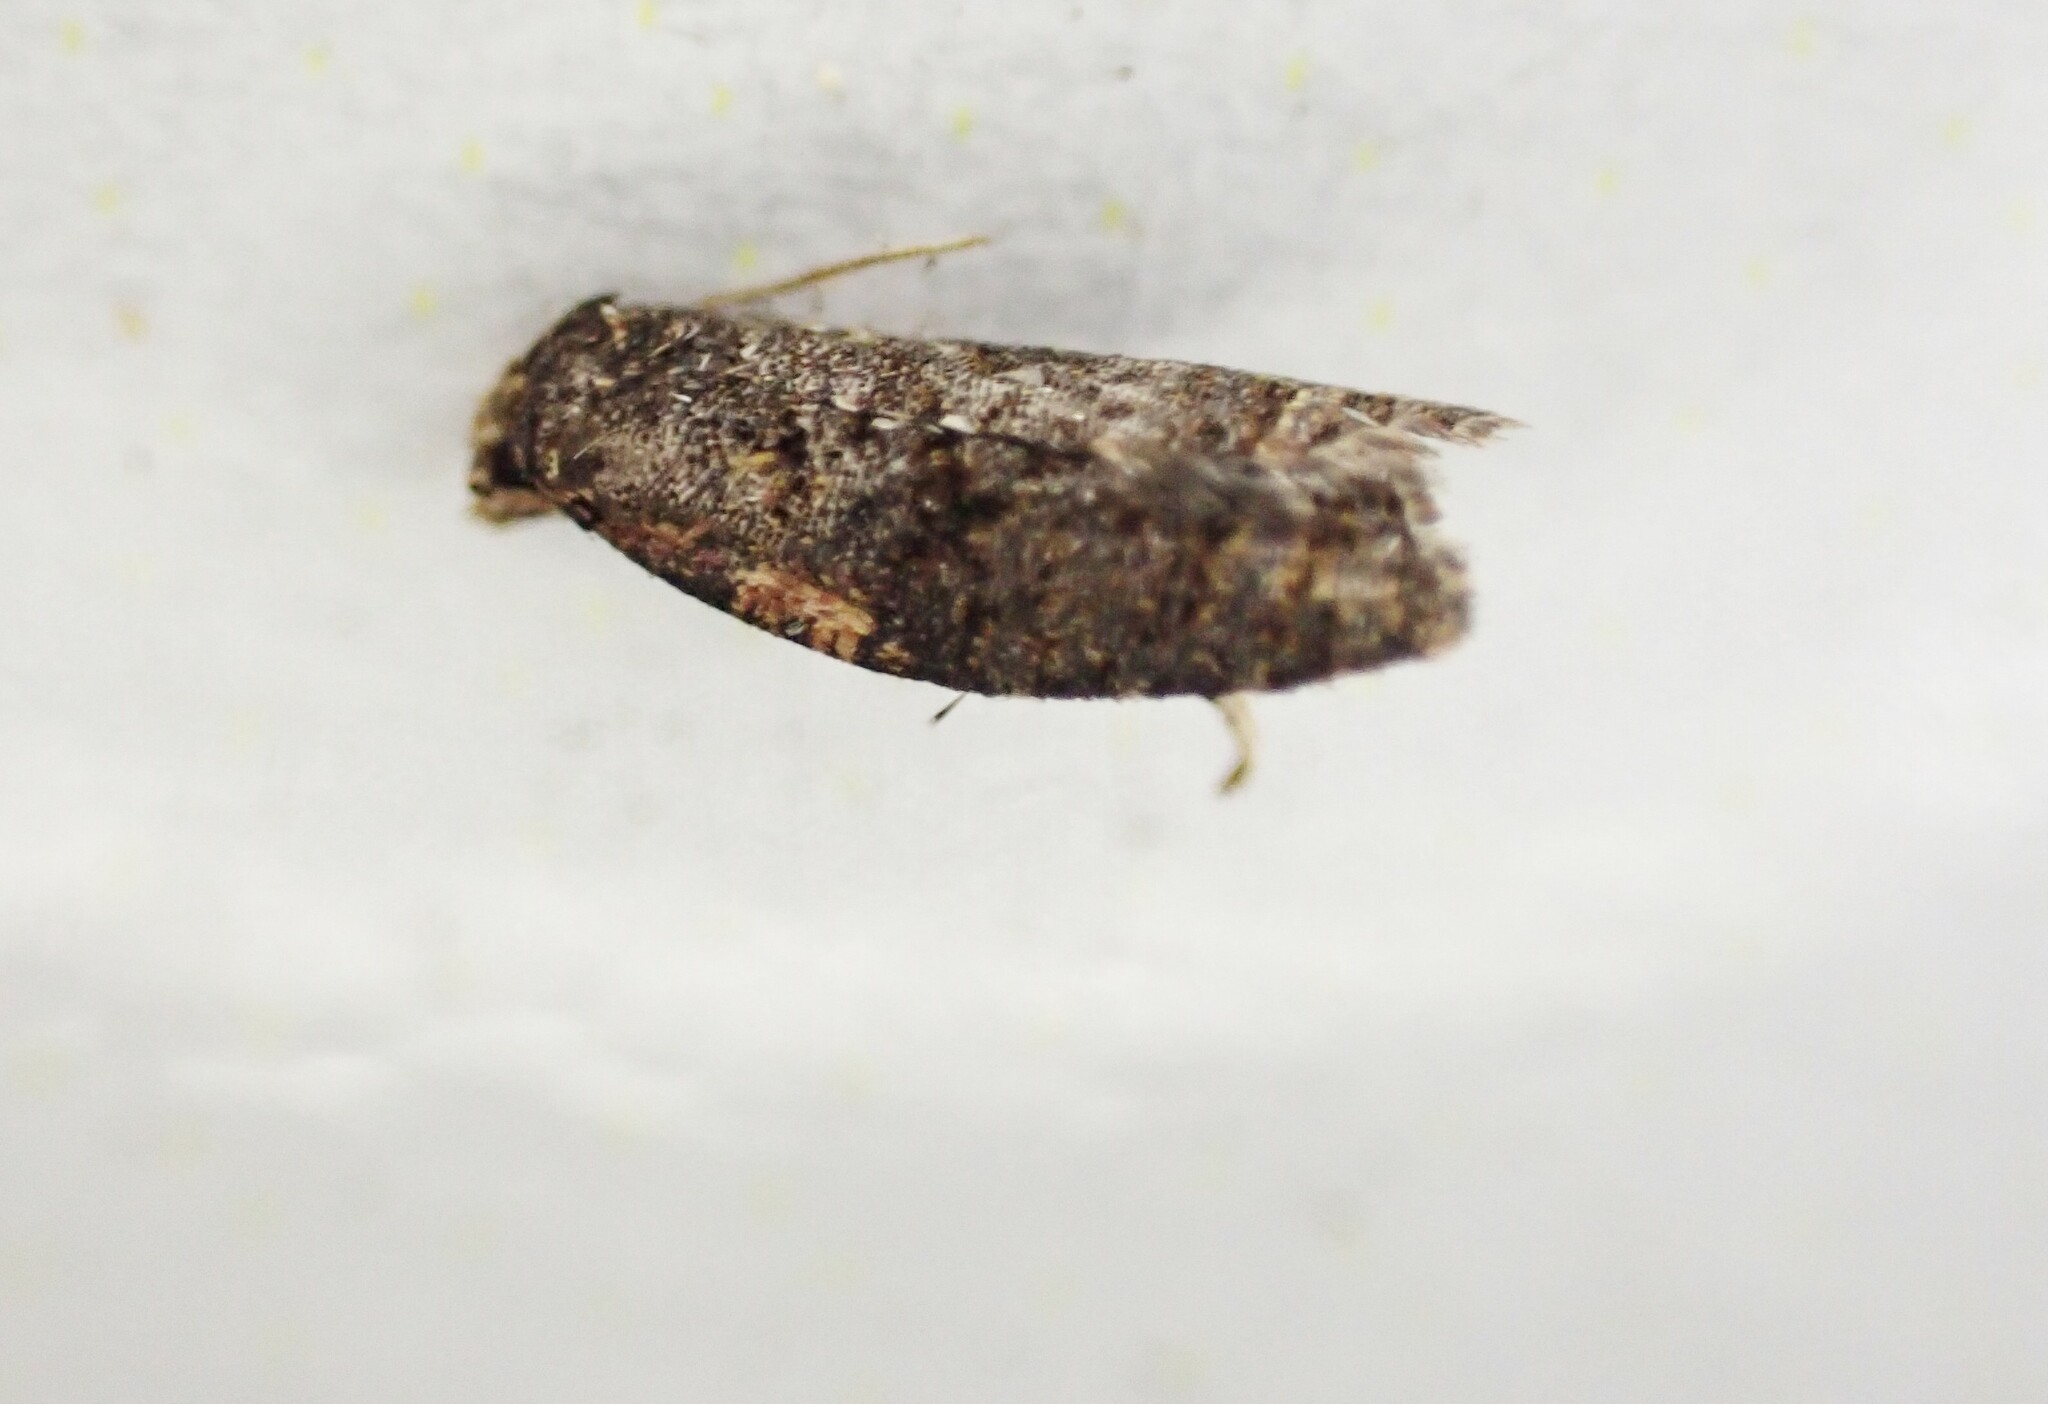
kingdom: Animalia
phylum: Arthropoda
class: Insecta
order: Lepidoptera
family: Tortricidae
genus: Capua
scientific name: Capua intractana
